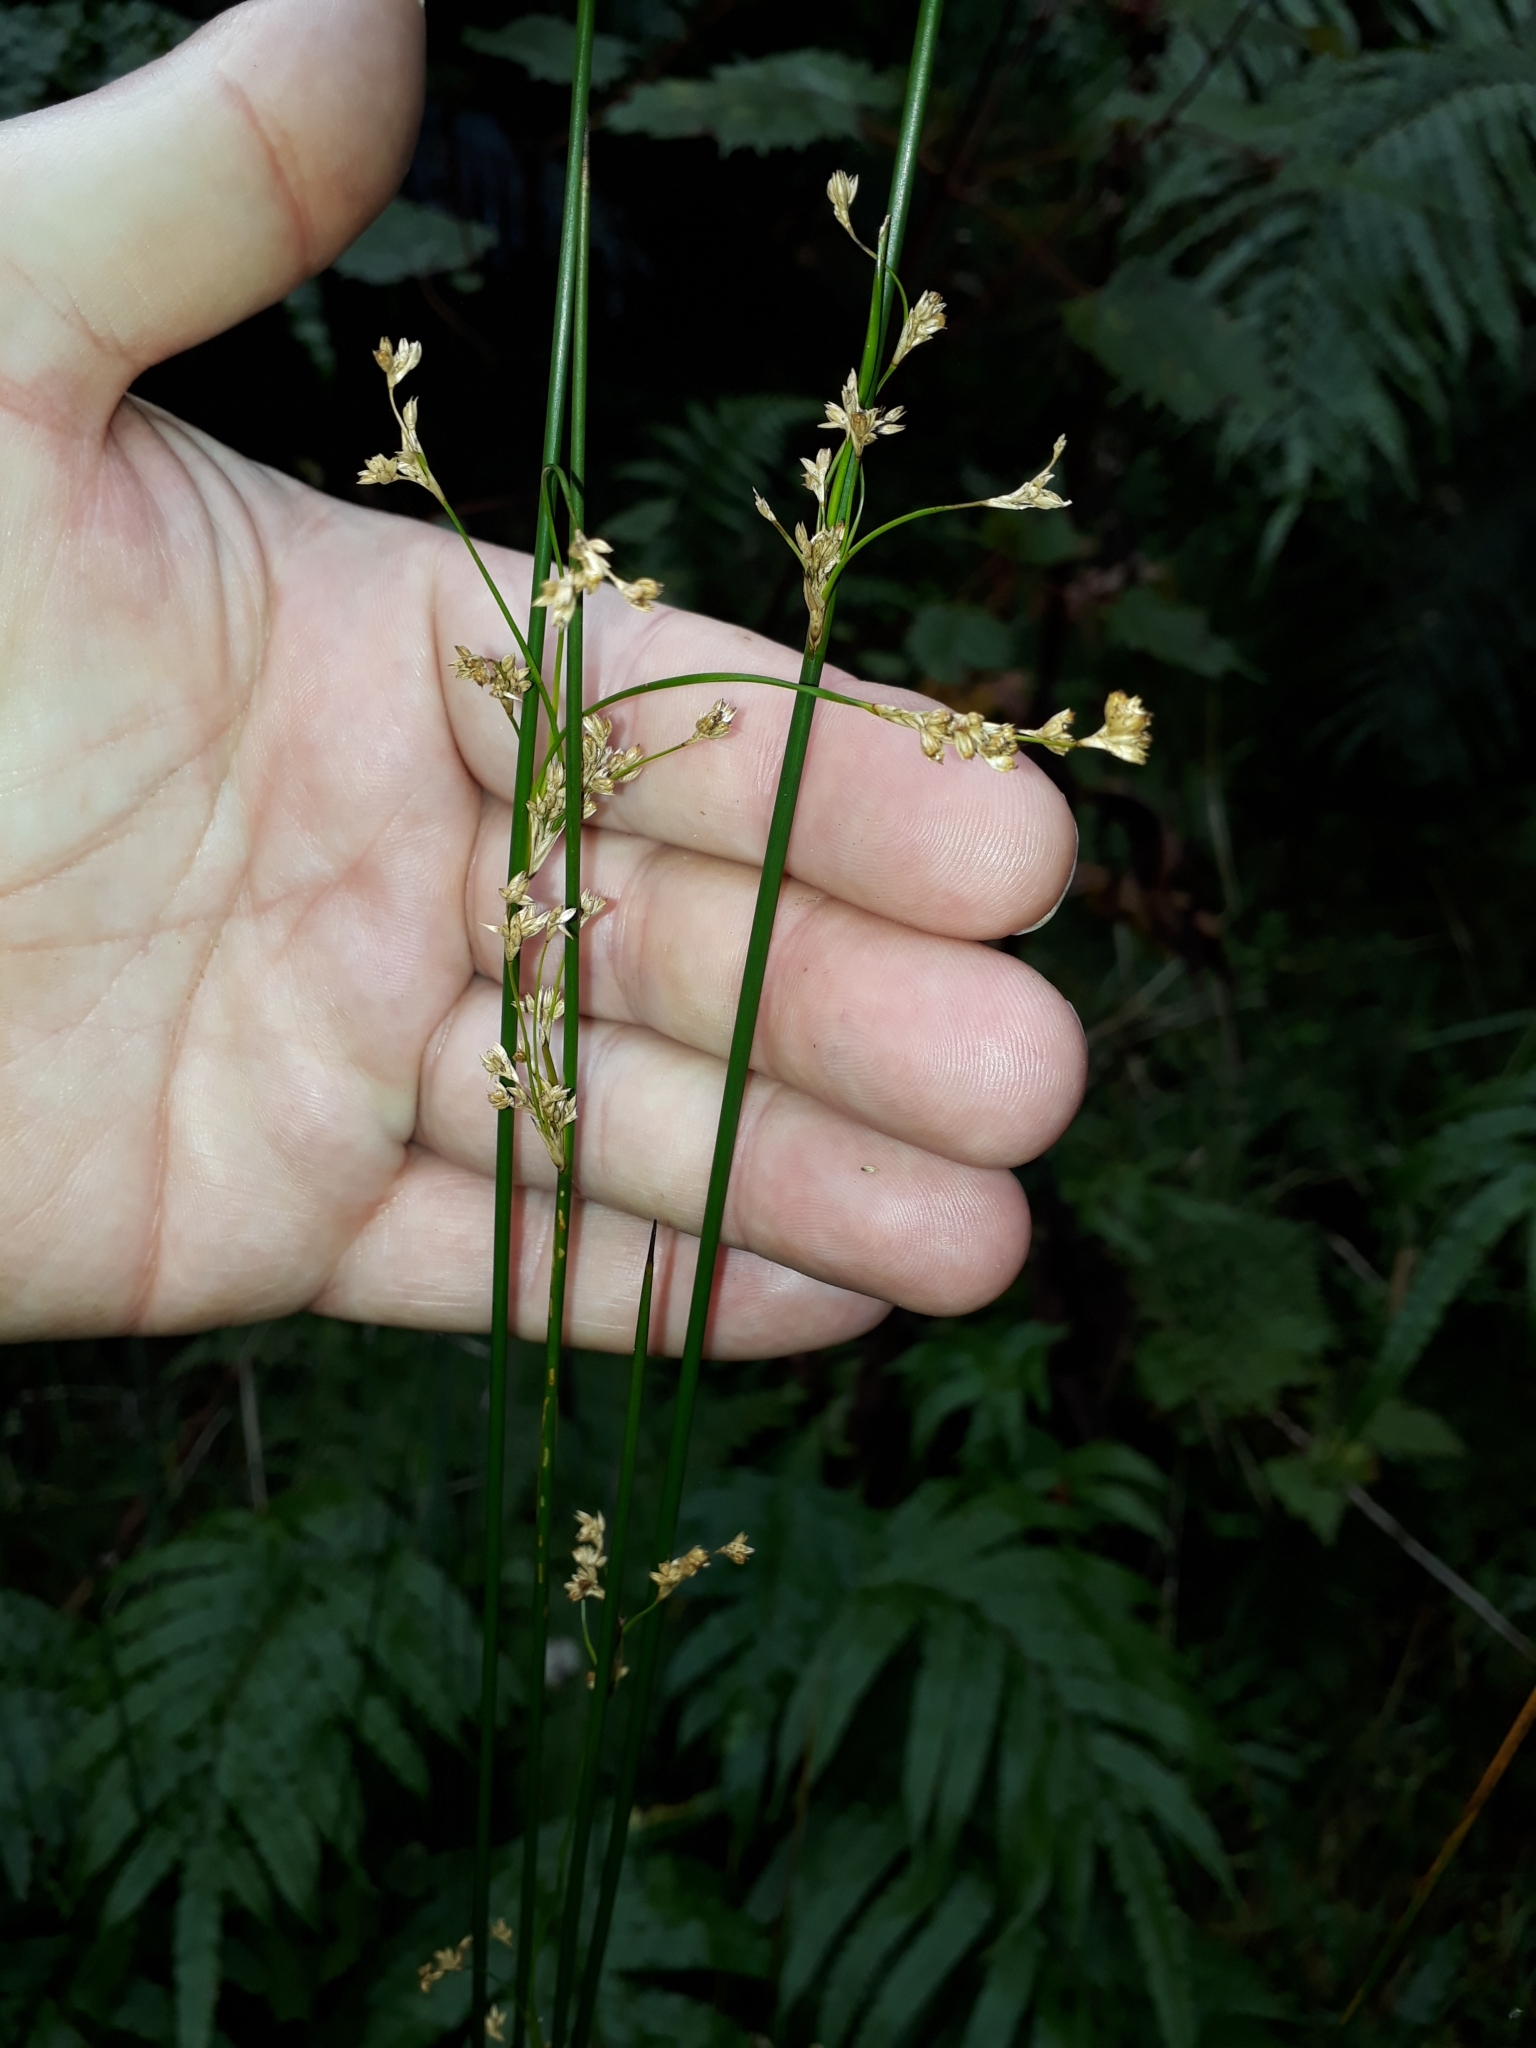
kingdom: Plantae
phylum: Tracheophyta
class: Liliopsida
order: Poales
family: Juncaceae
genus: Juncus
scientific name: Juncus edgariae
